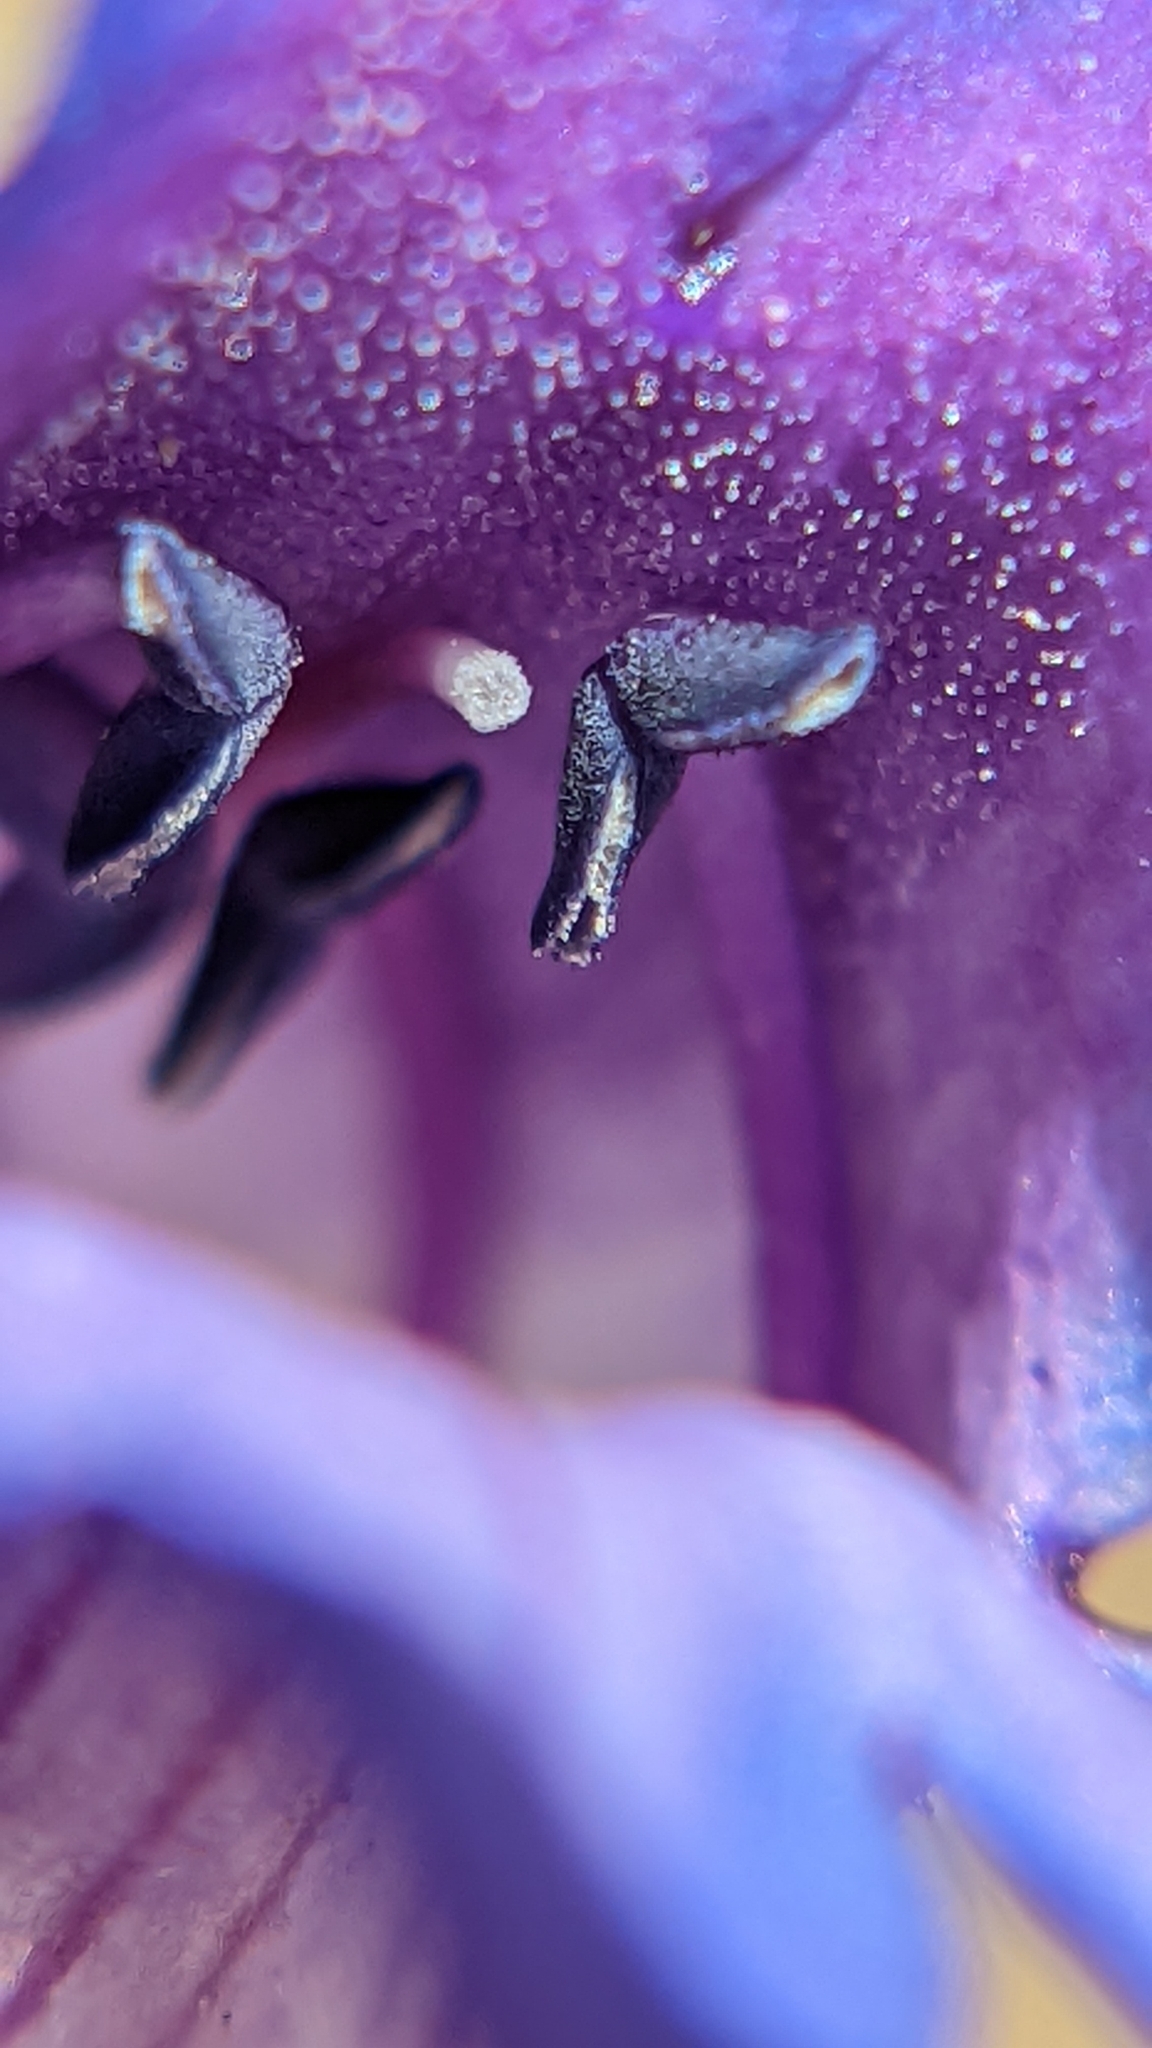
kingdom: Plantae
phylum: Tracheophyta
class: Magnoliopsida
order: Lamiales
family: Plantaginaceae
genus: Penstemon
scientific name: Penstemon leiophyllus
